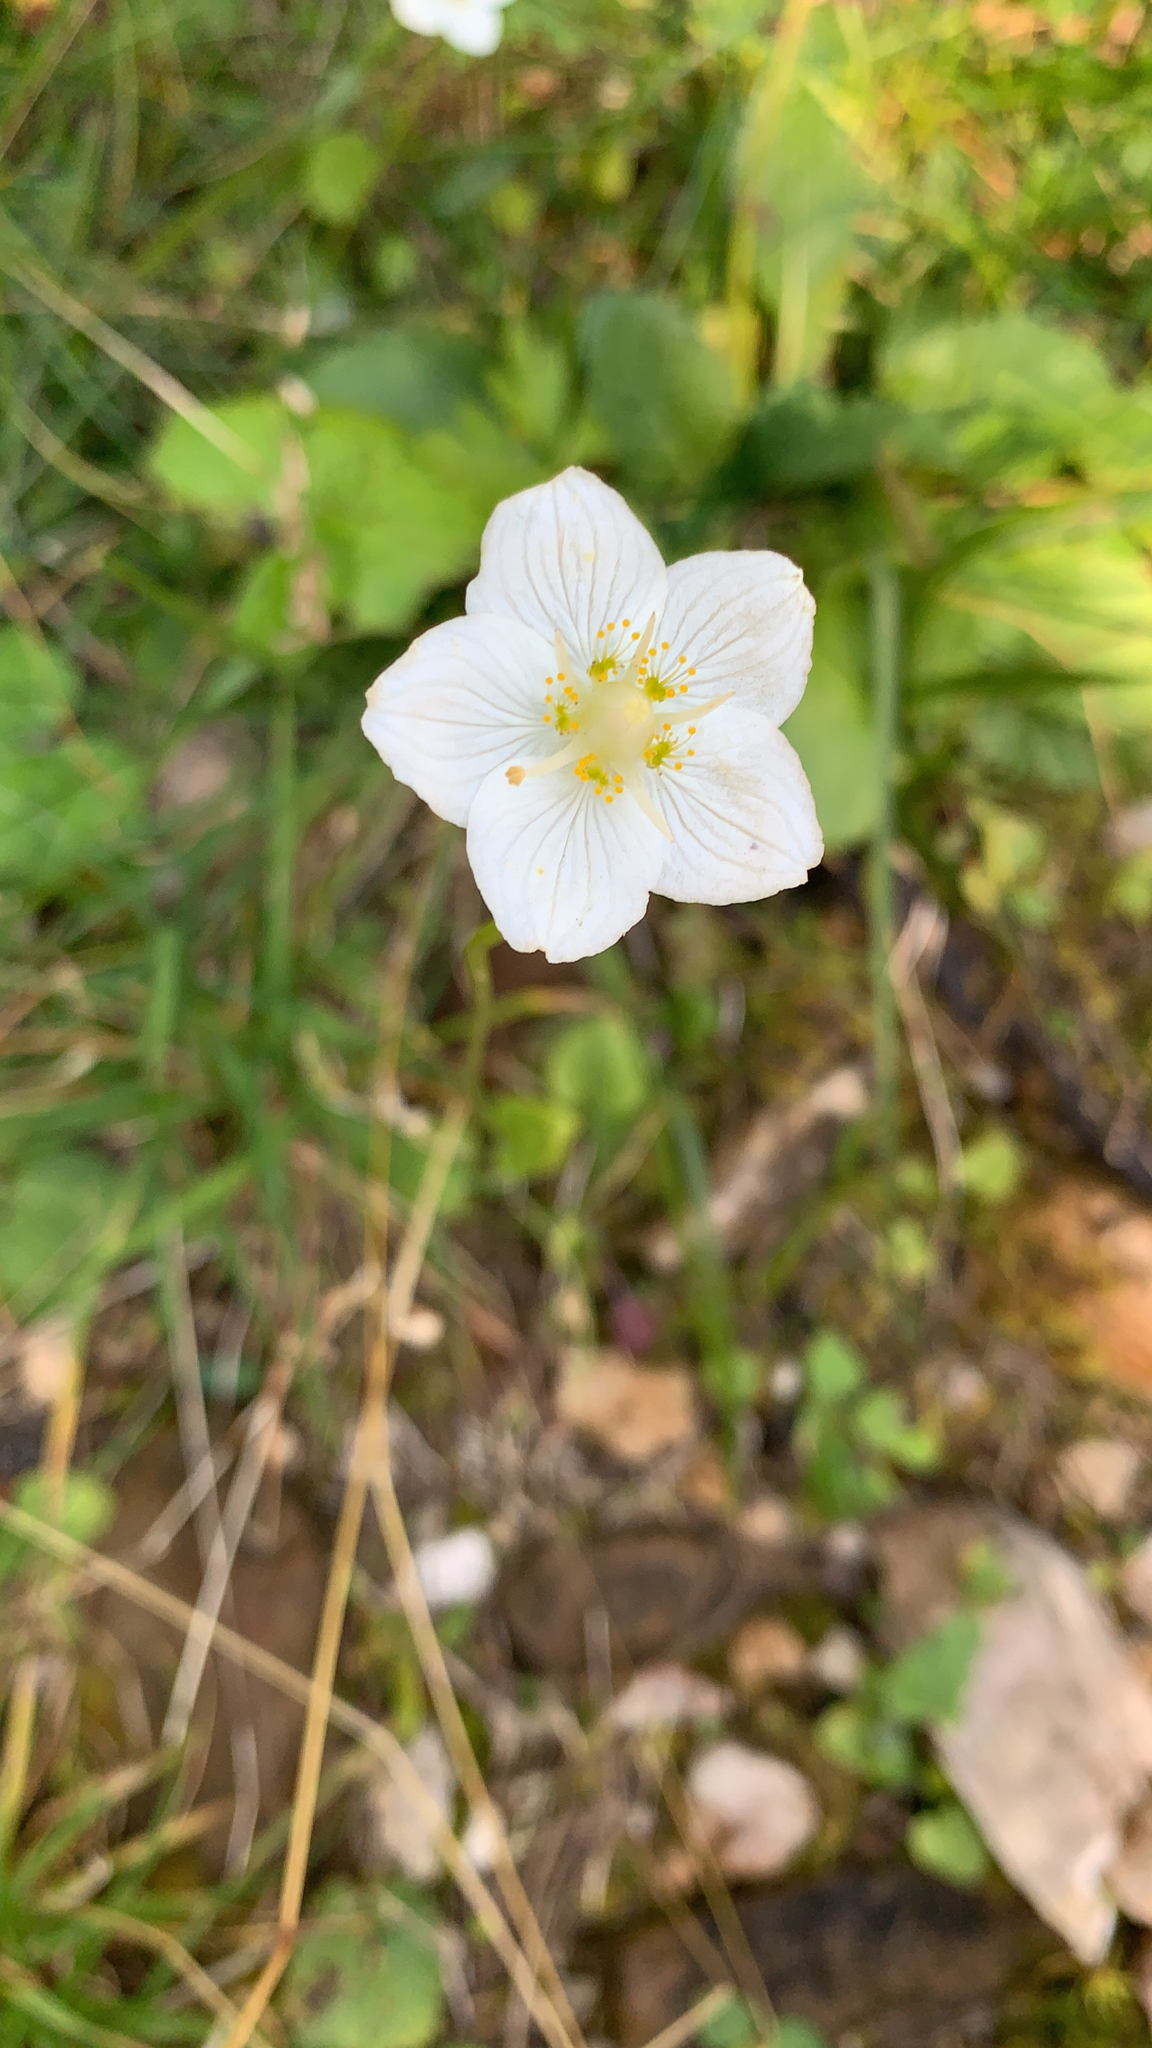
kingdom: Plantae
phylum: Tracheophyta
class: Magnoliopsida
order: Celastrales
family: Parnassiaceae
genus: Parnassia
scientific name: Parnassia palustris
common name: Grass-of-parnassus
